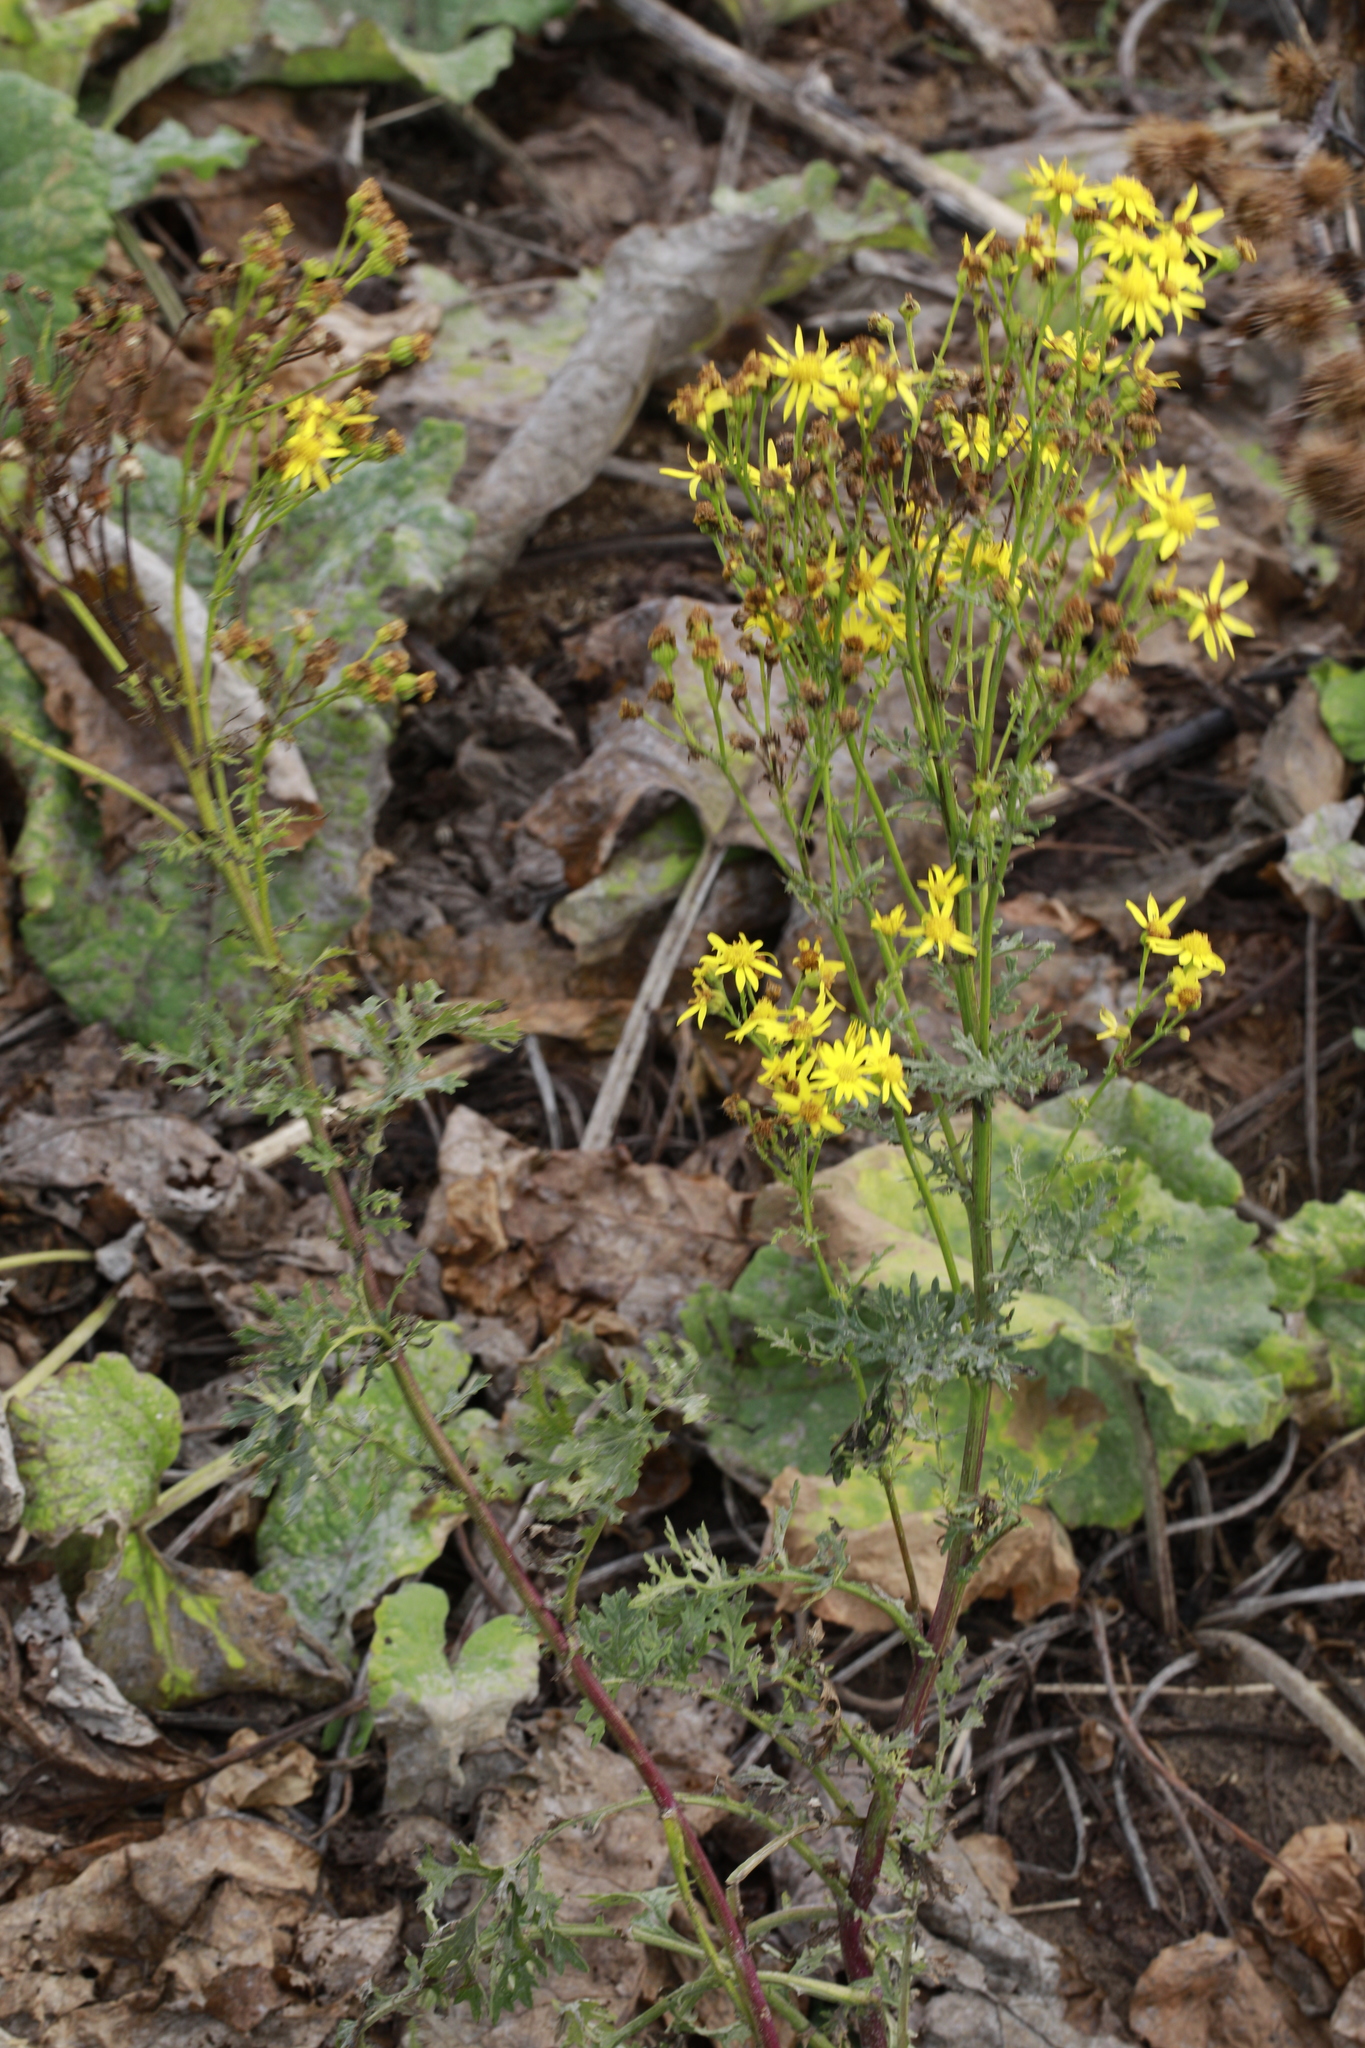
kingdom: Plantae
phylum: Tracheophyta
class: Magnoliopsida
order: Asterales
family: Asteraceae
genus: Jacobaea
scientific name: Jacobaea vulgaris
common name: Stinking willie
